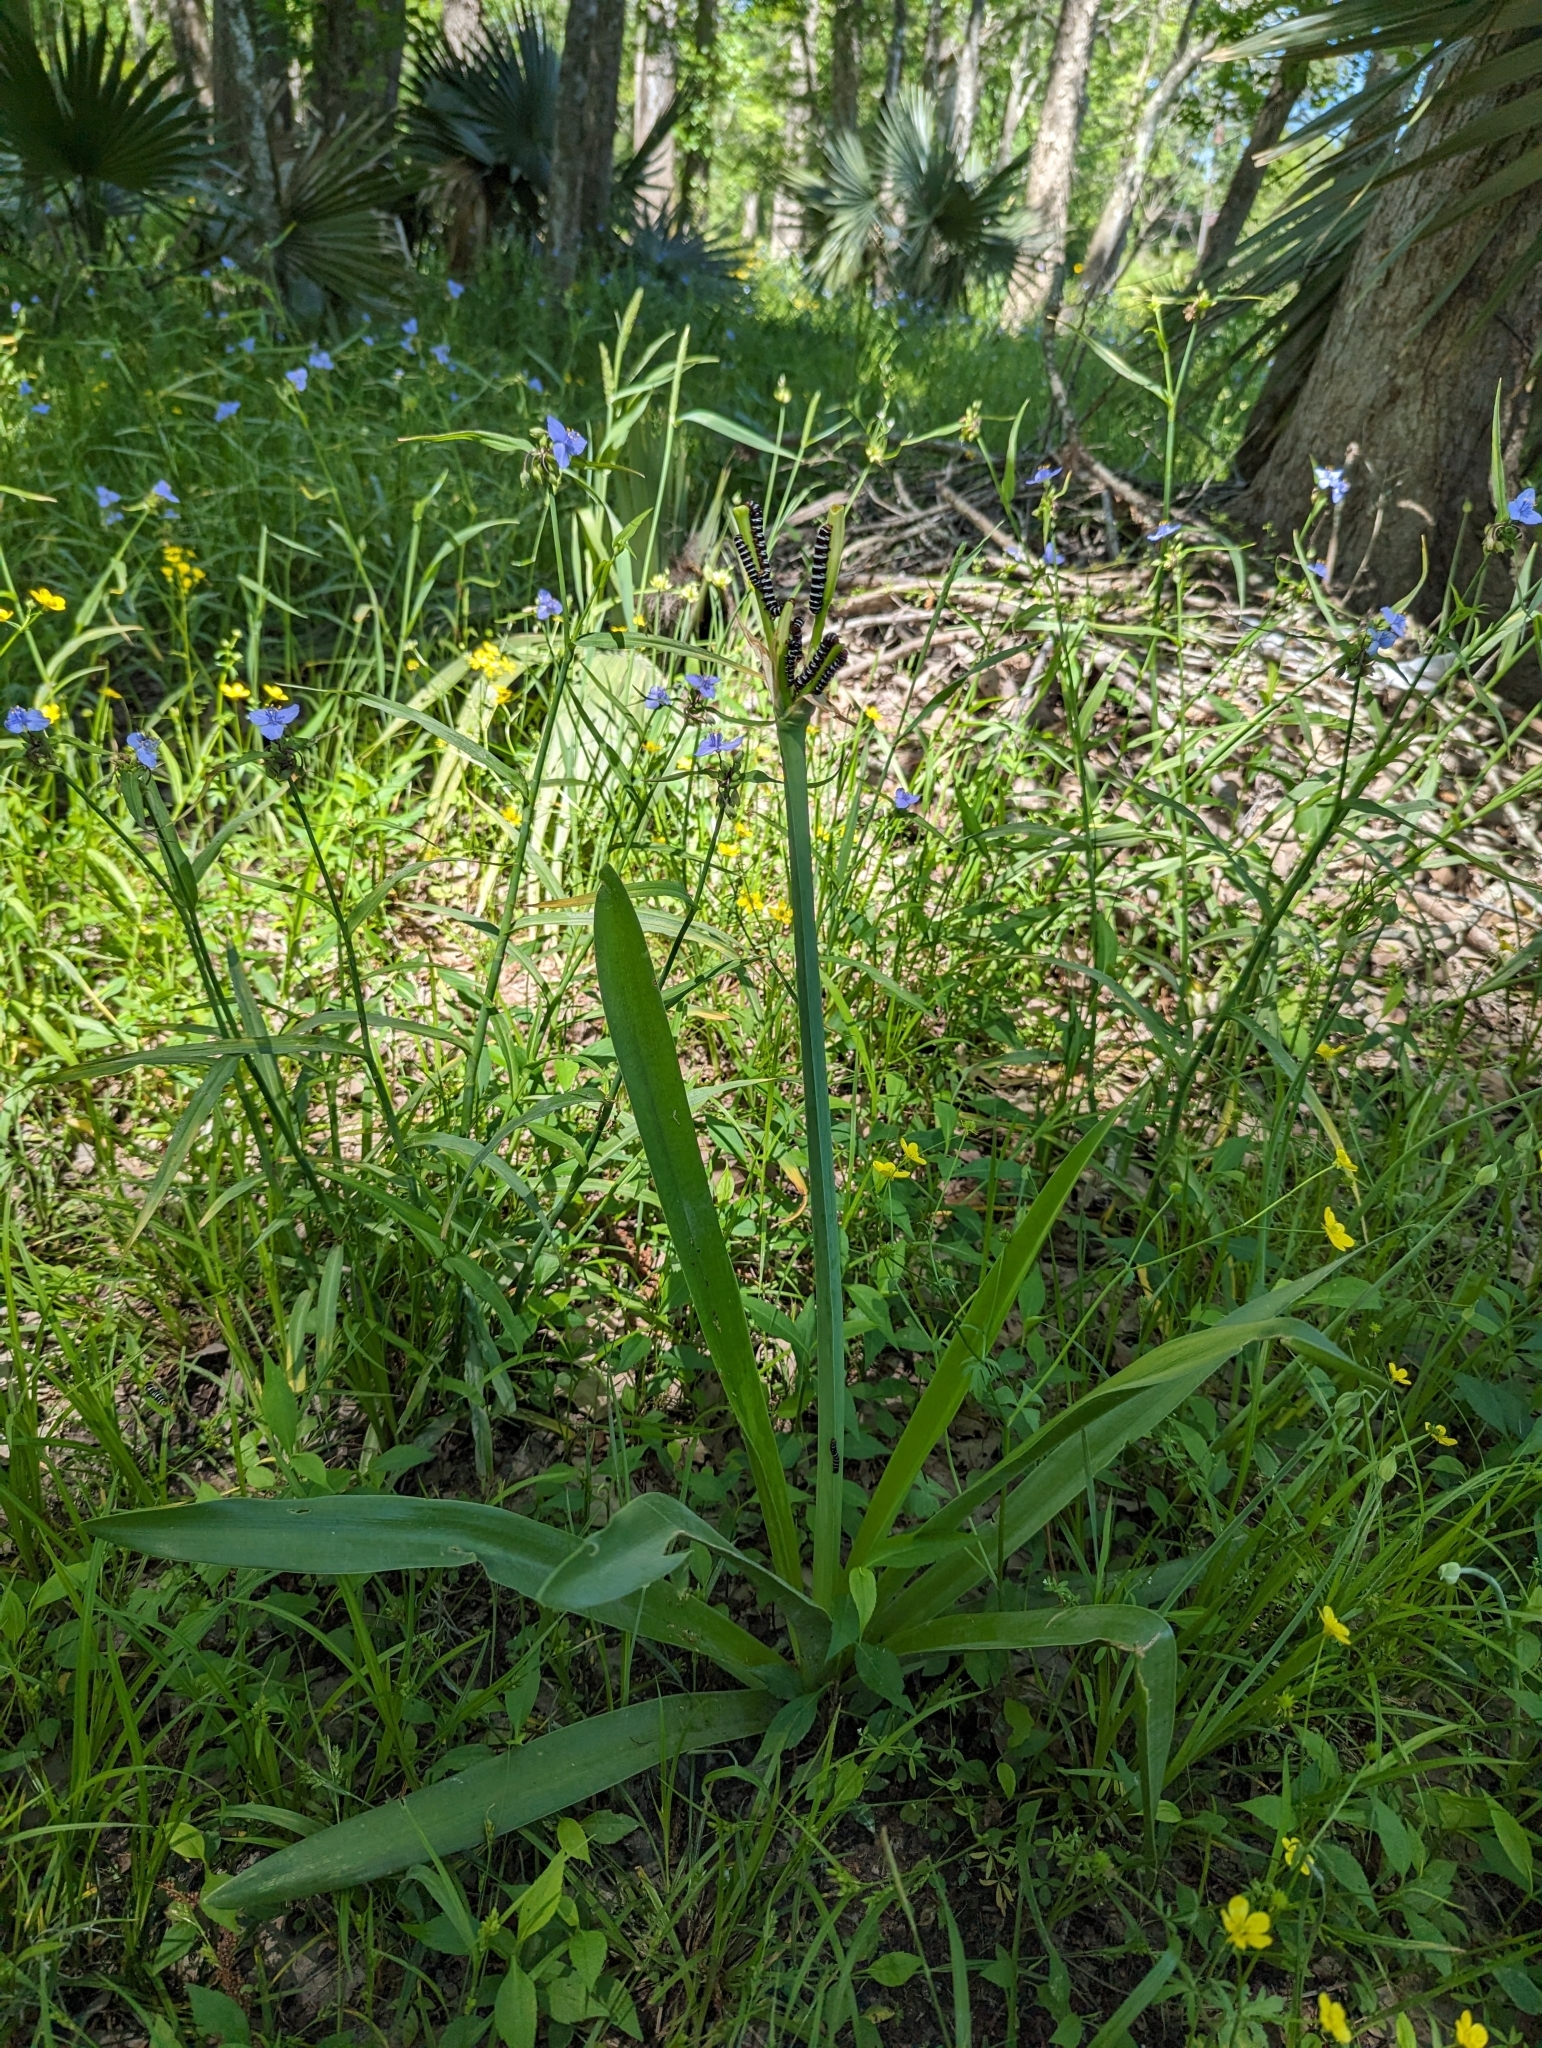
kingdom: Animalia
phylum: Arthropoda
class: Insecta
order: Lepidoptera
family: Noctuidae
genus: Xanthopastis
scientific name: Xanthopastis regnatrix
